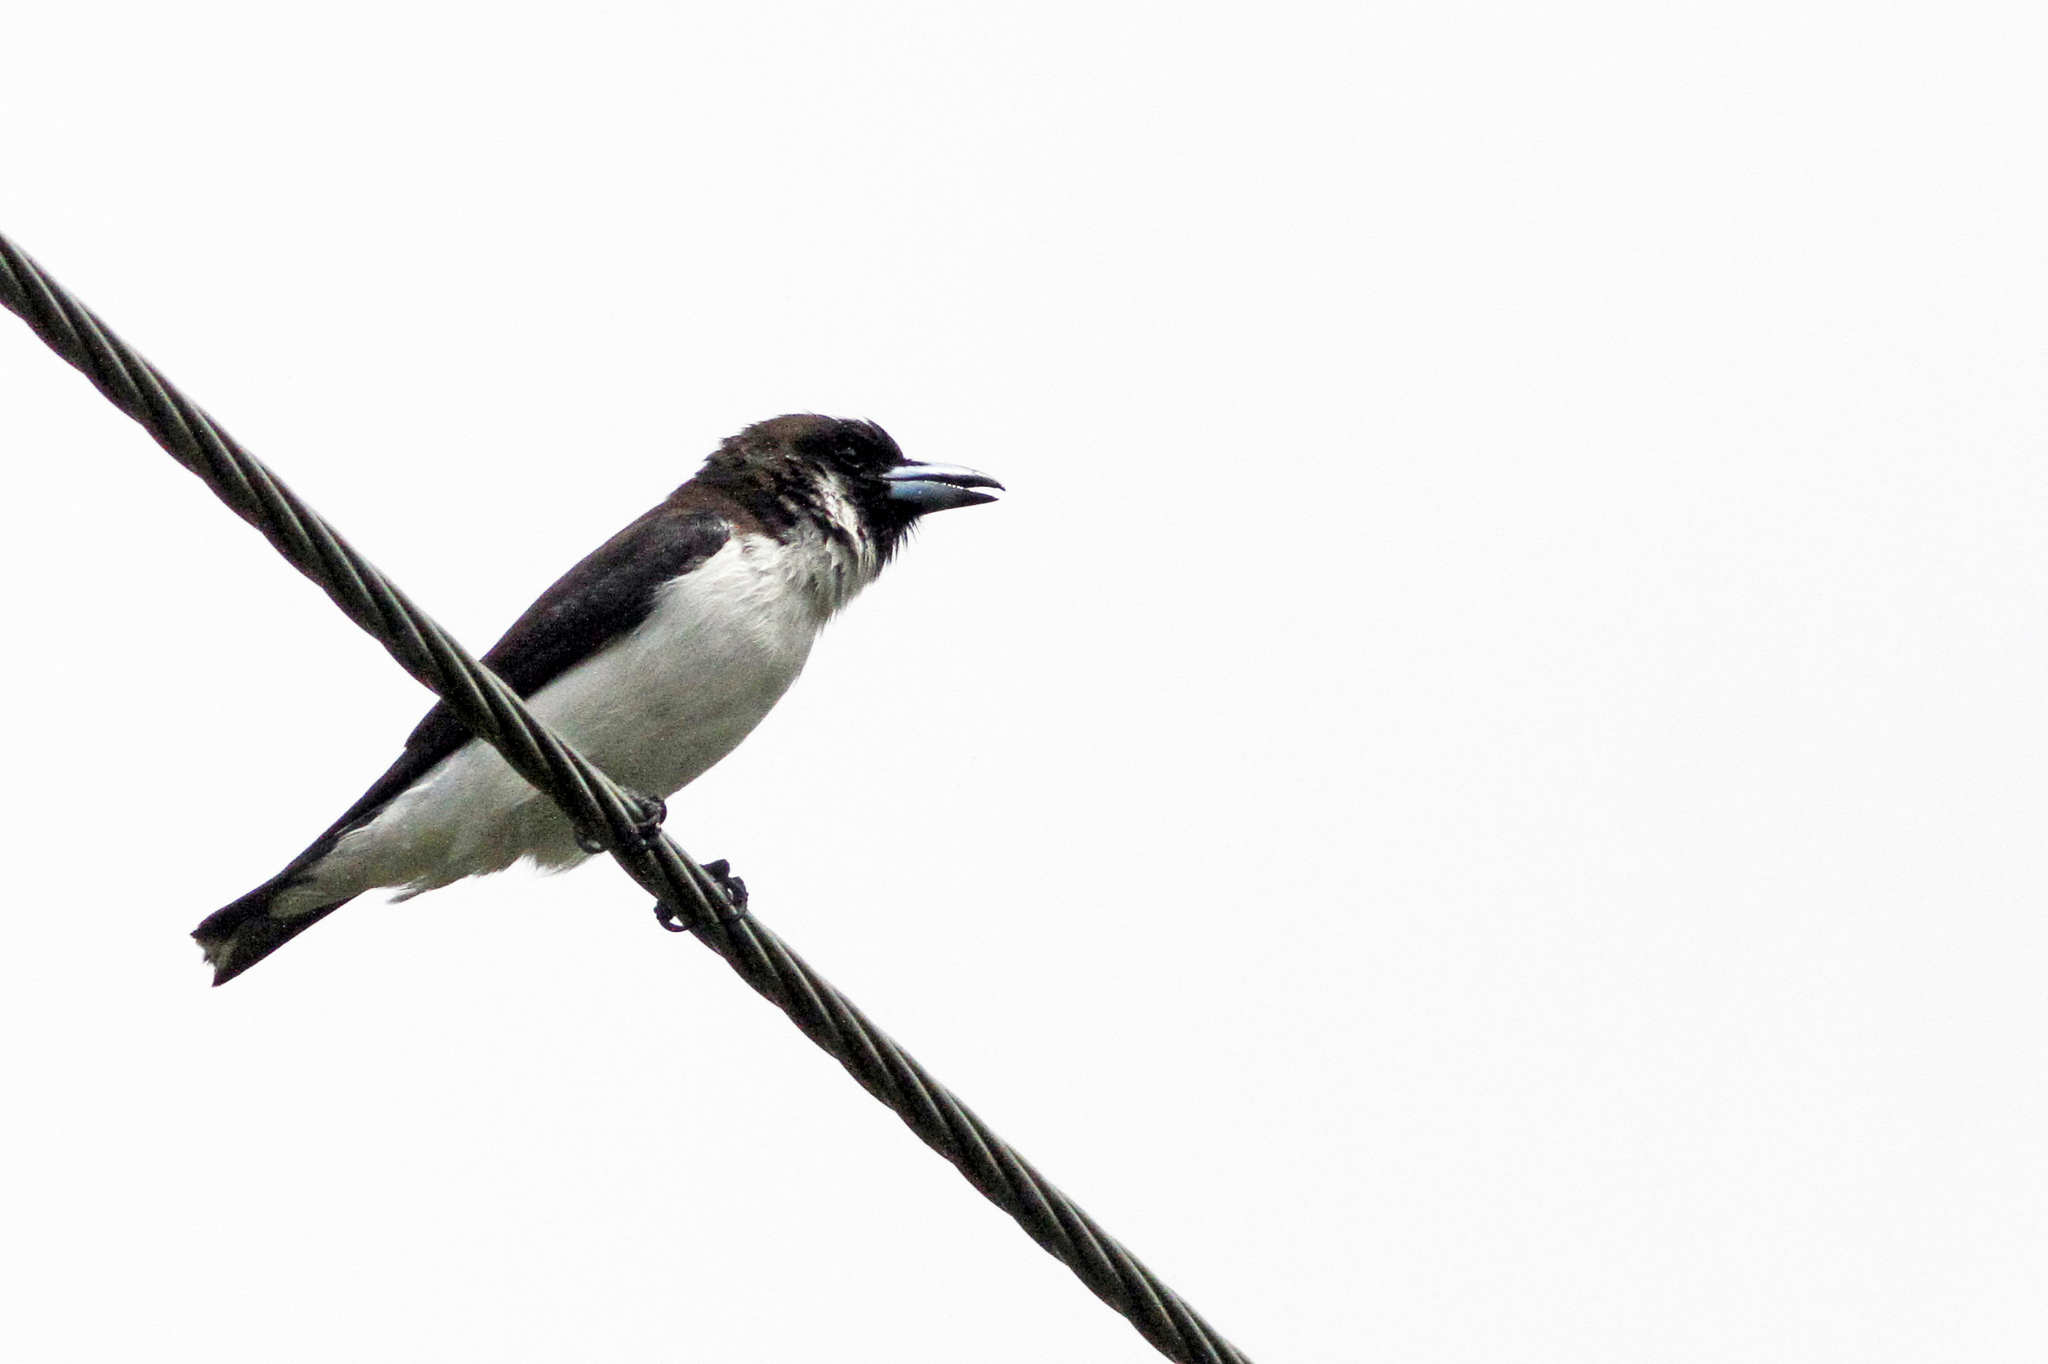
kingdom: Animalia
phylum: Chordata
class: Aves
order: Passeriformes
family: Artamidae
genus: Artamus
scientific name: Artamus mentalis
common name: Fiji woodswallow
